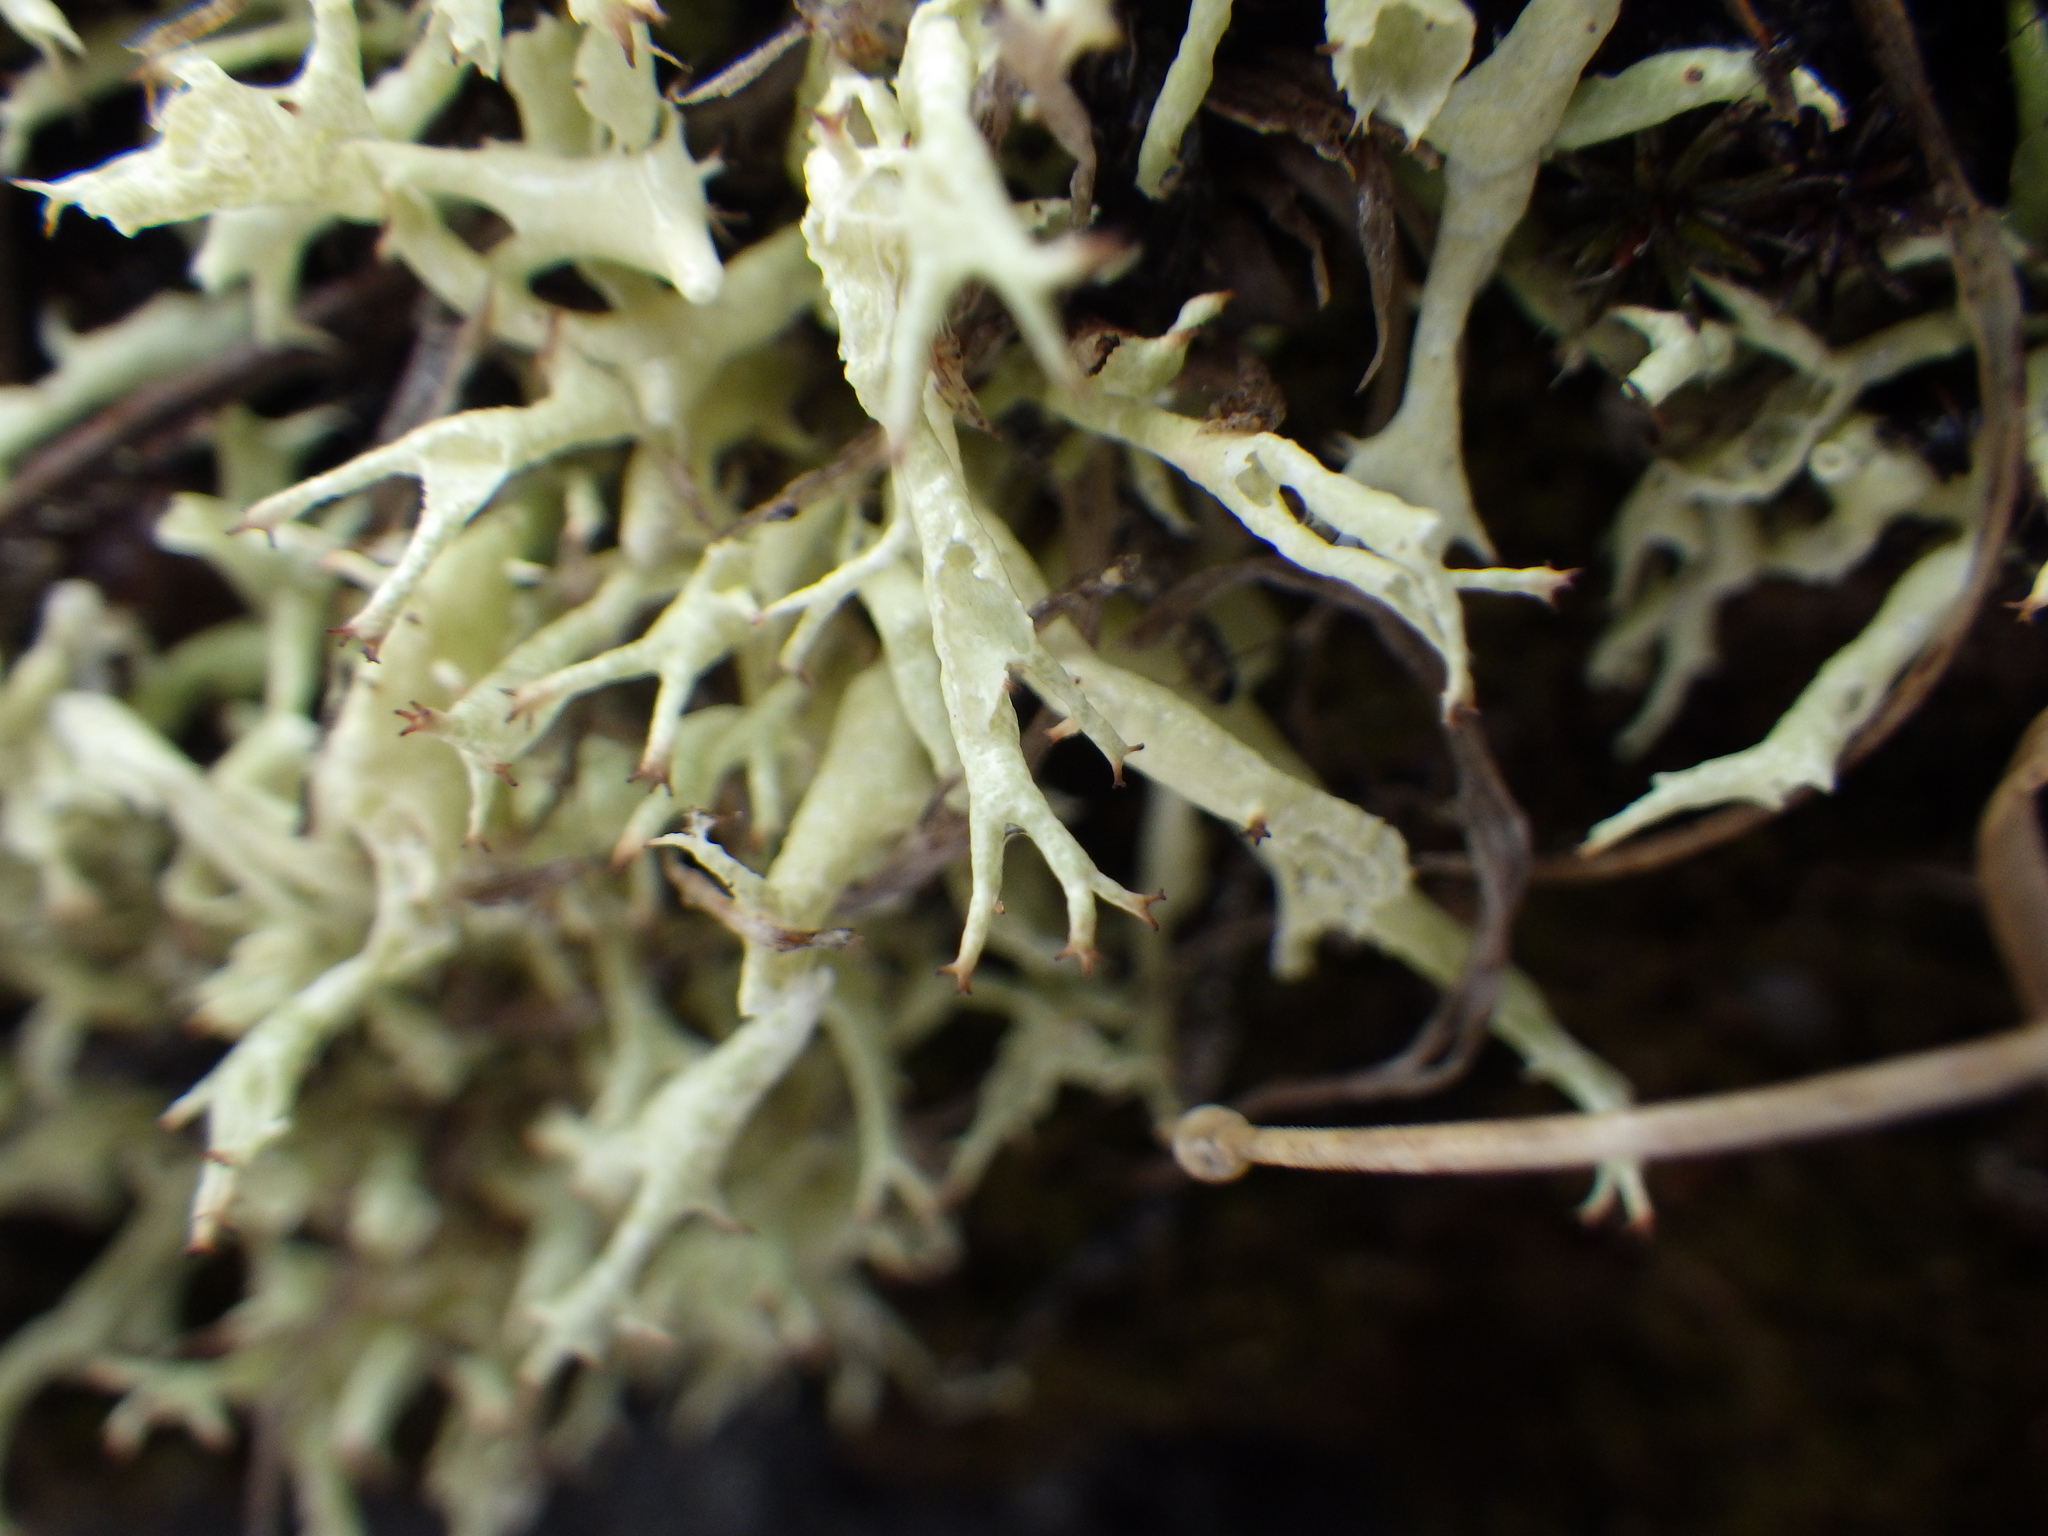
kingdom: Fungi
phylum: Ascomycota
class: Lecanoromycetes
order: Lecanorales
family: Cladoniaceae
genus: Cladonia
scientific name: Cladonia uncialis
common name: Thorn lichen
